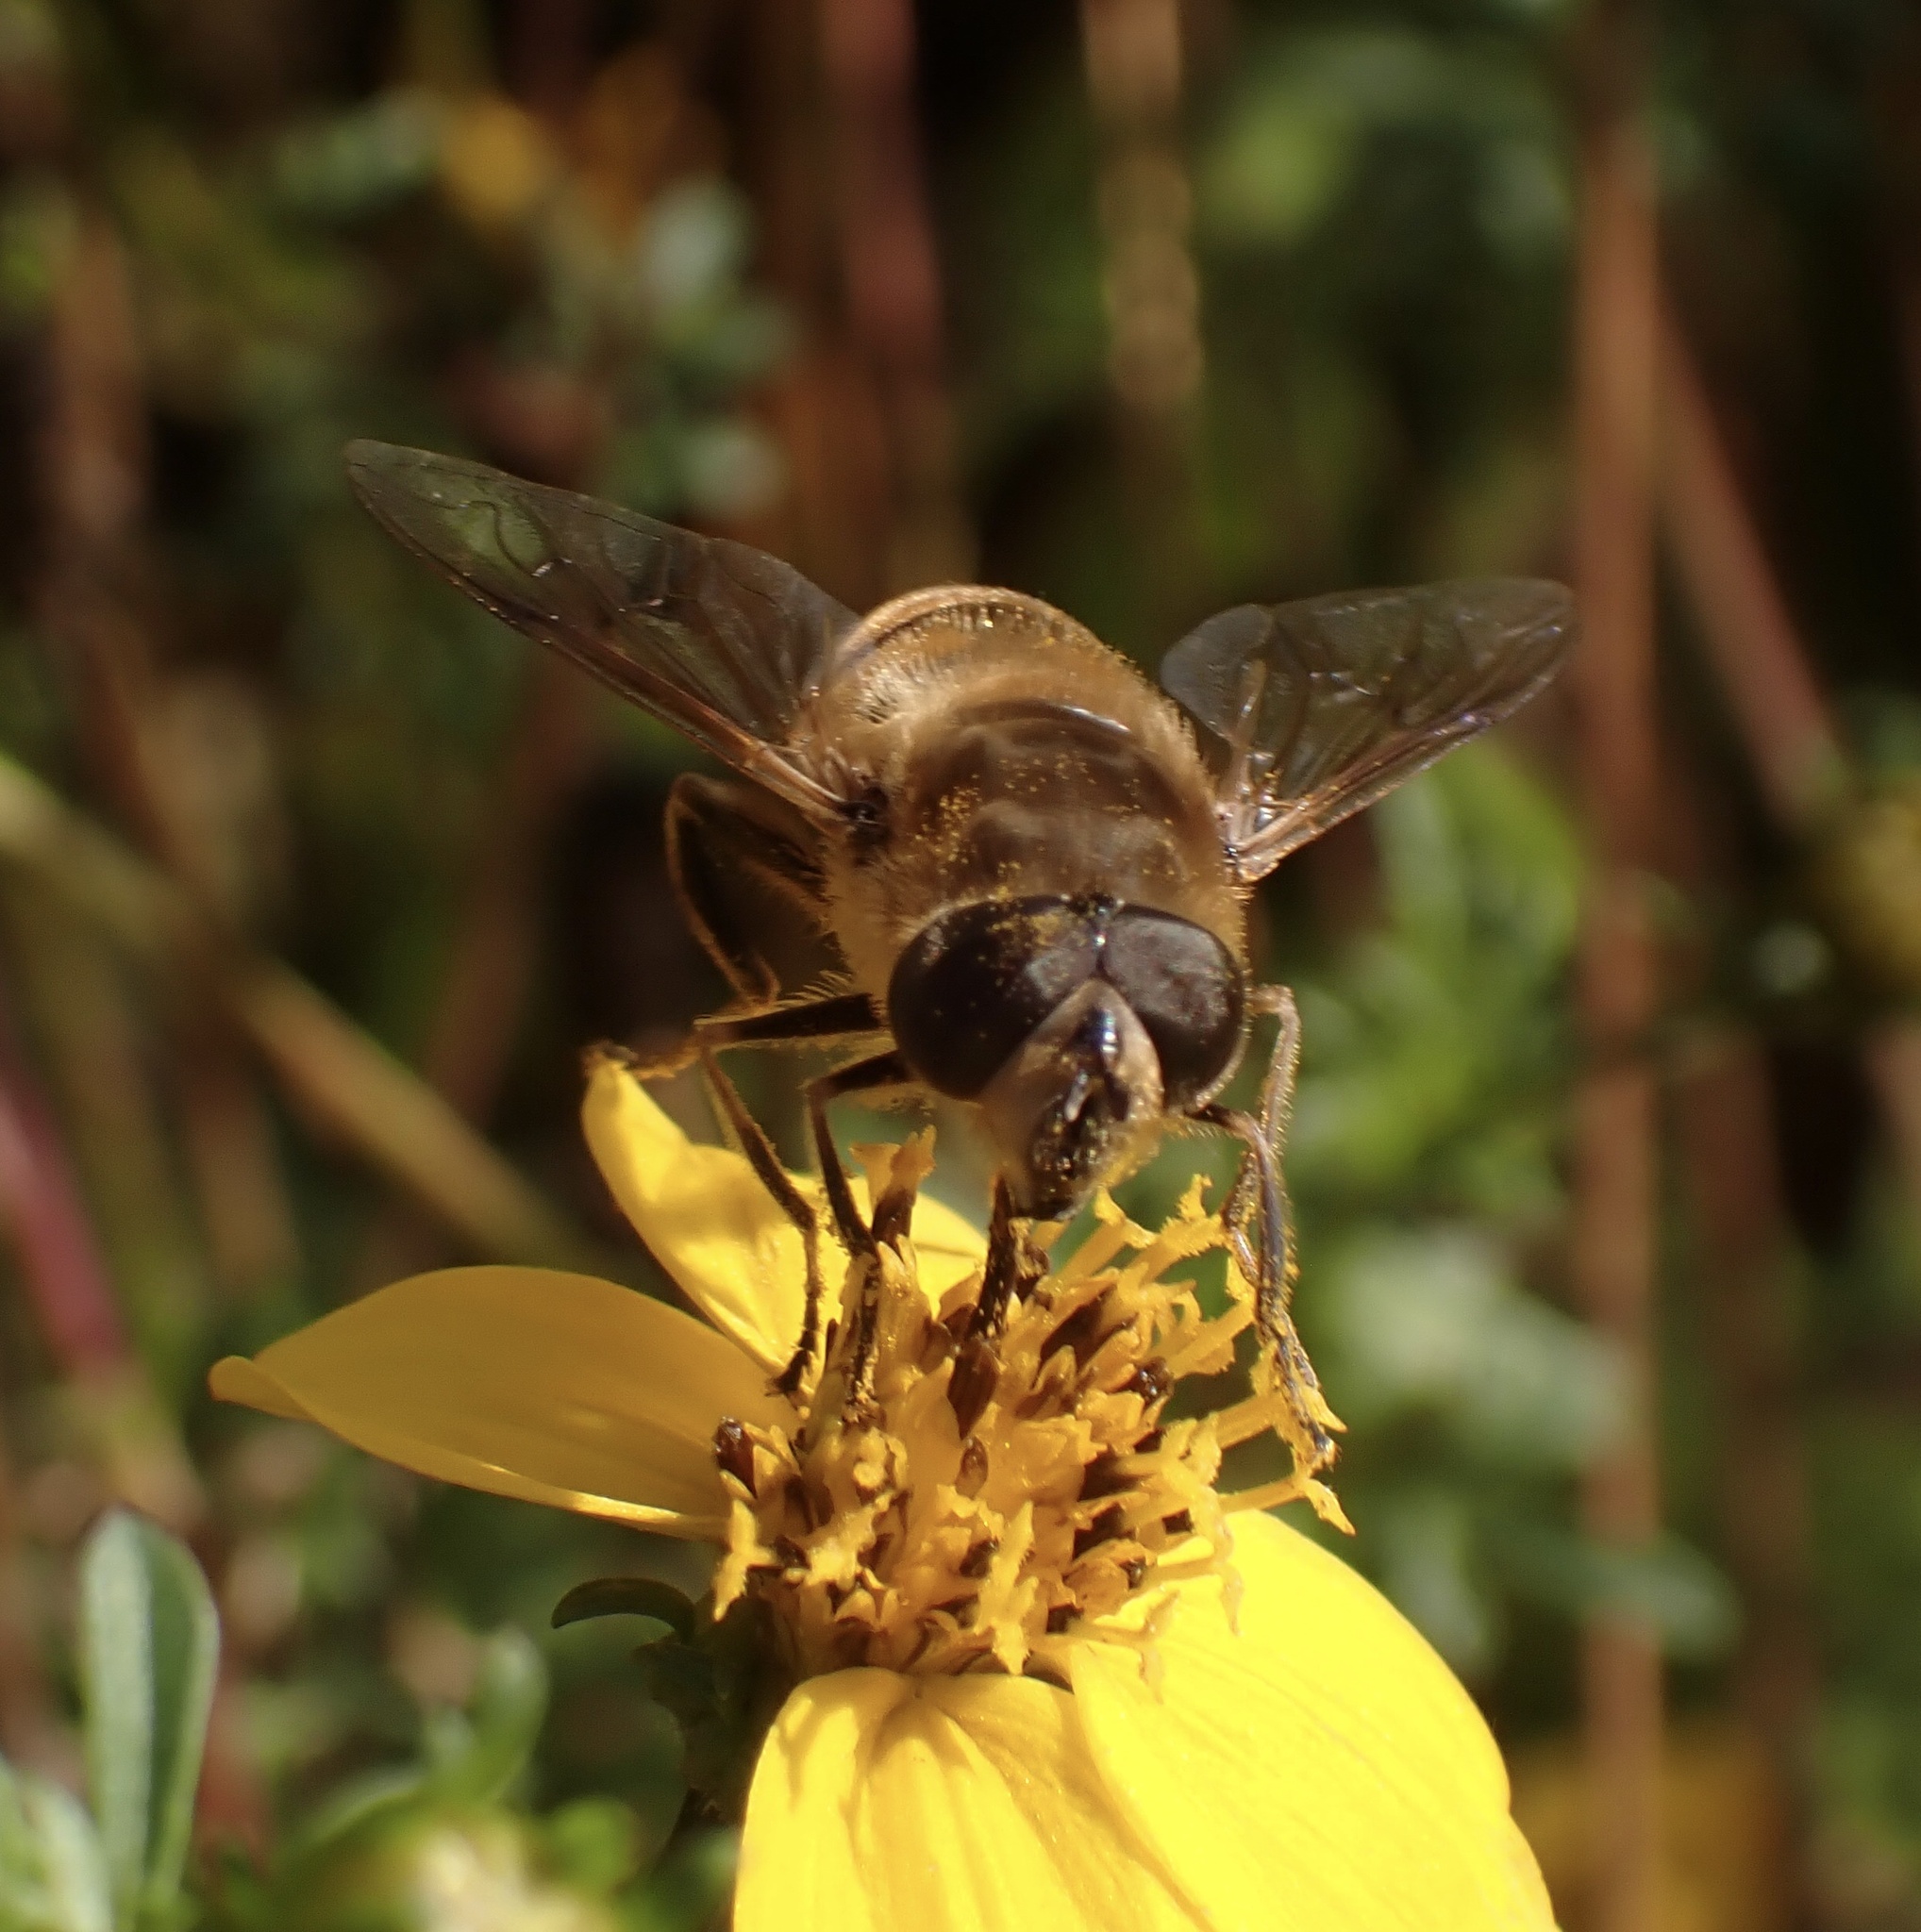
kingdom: Animalia
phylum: Arthropoda
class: Insecta
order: Diptera
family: Syrphidae
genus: Eristalis
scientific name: Eristalis tenax
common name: Drone fly
